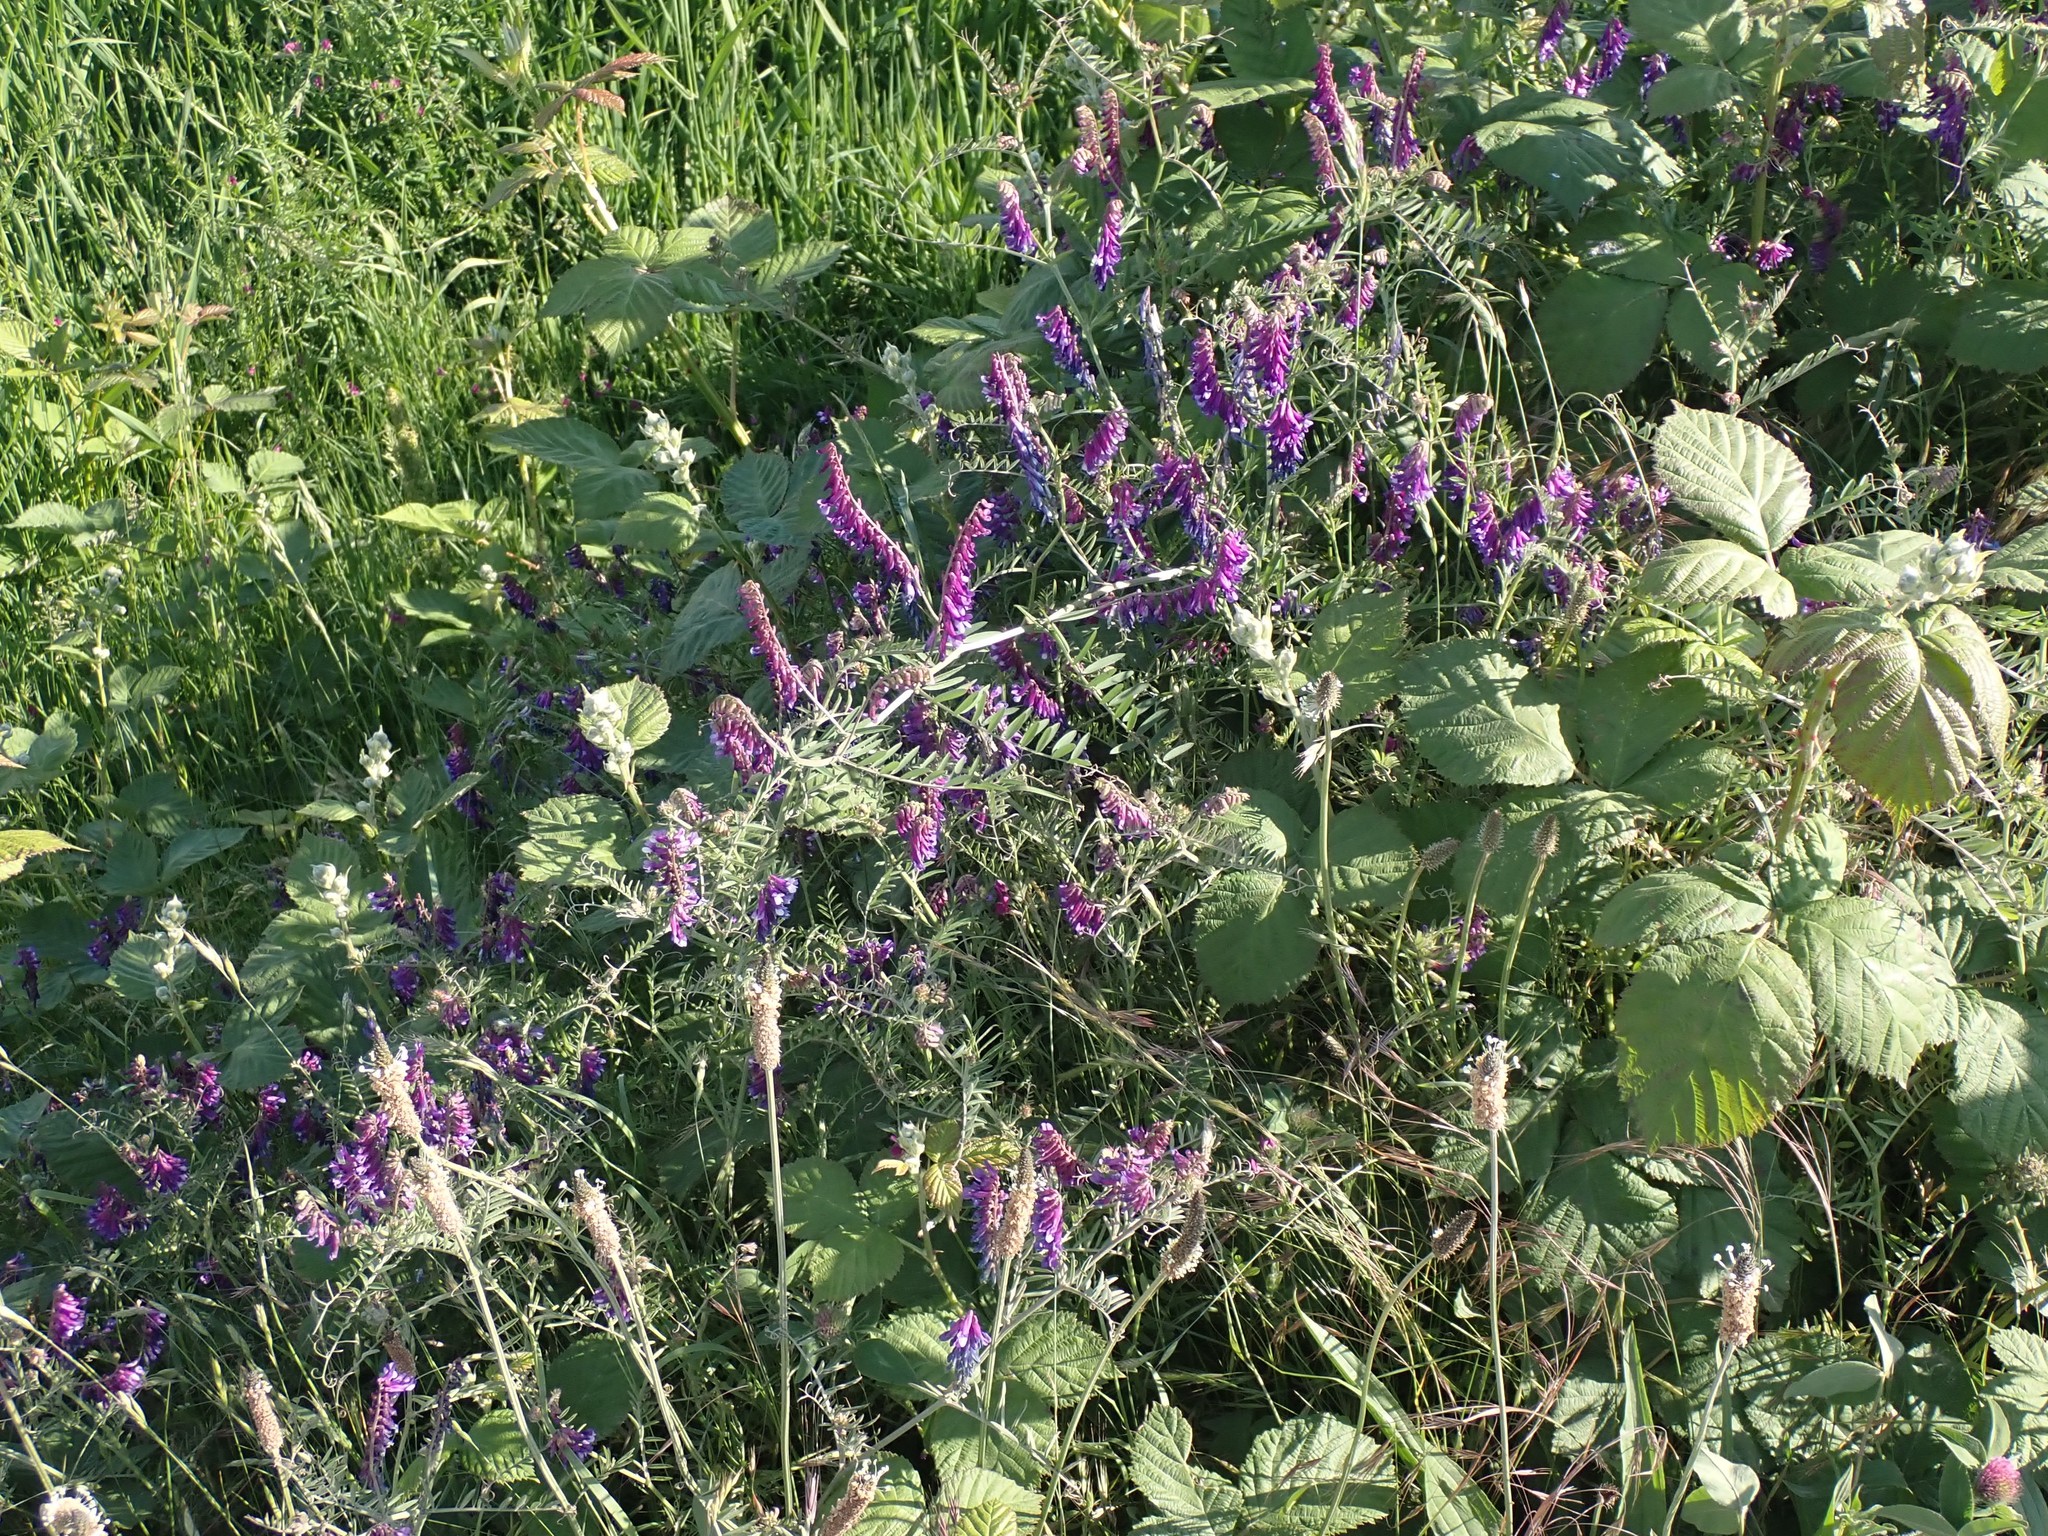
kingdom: Plantae
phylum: Tracheophyta
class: Magnoliopsida
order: Fabales
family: Fabaceae
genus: Vicia
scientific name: Vicia villosa
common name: Fodder vetch
